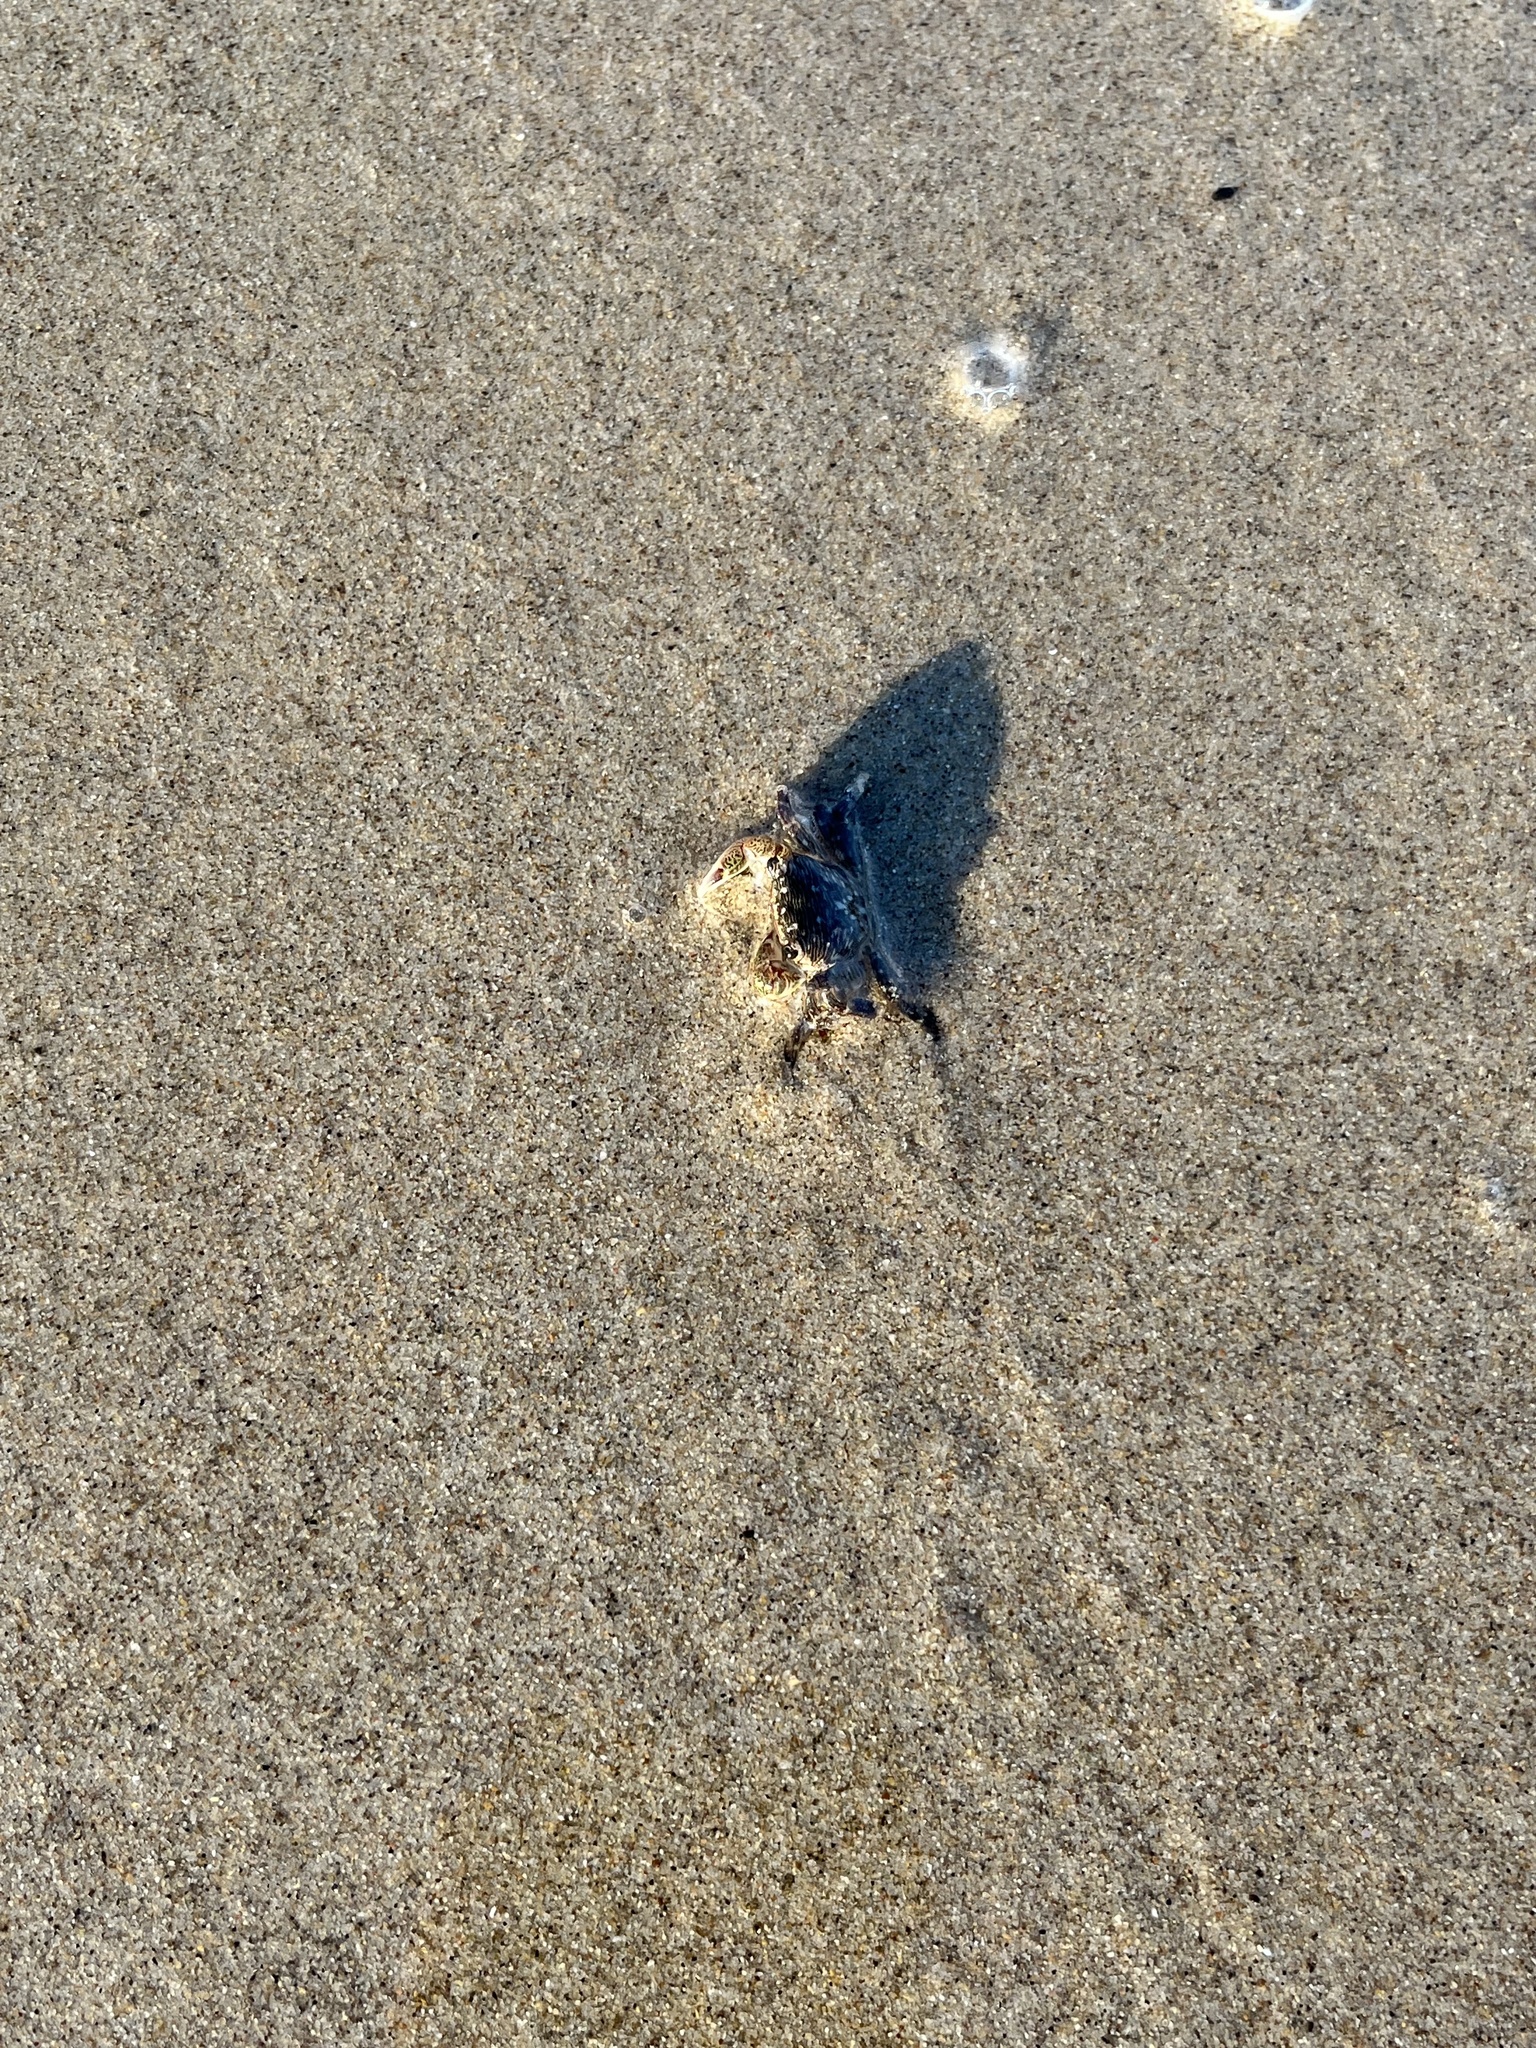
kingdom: Animalia
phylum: Arthropoda
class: Malacostraca
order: Decapoda
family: Grapsidae
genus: Pachygrapsus
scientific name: Pachygrapsus crassipes
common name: Striped shore crab
